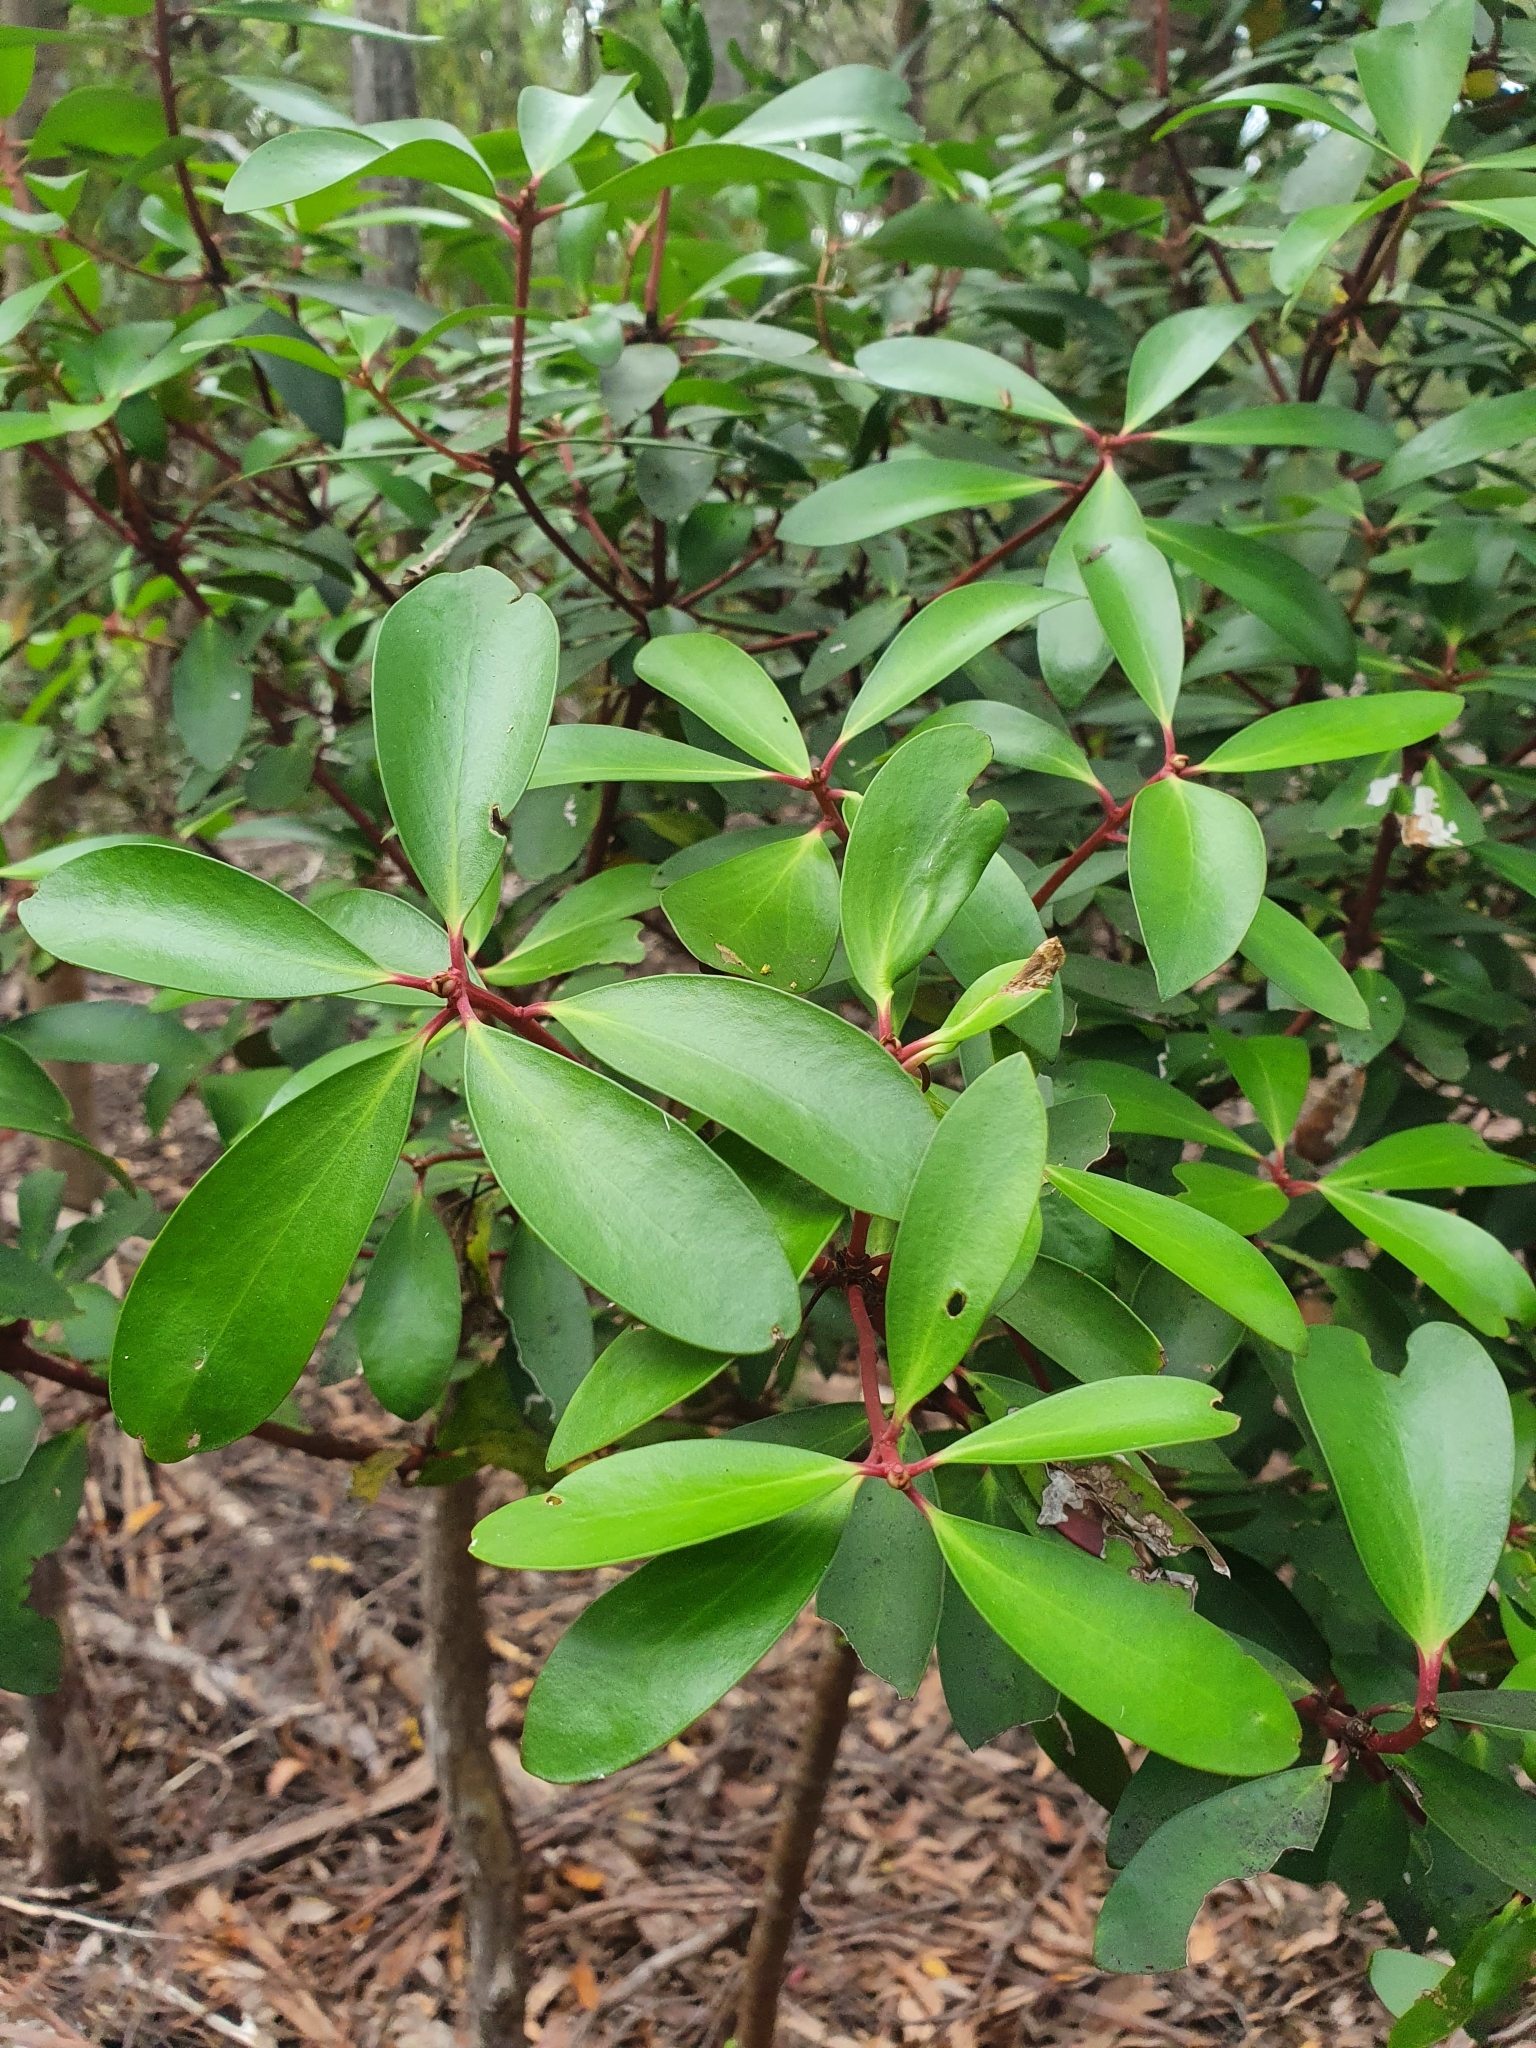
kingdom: Plantae
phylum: Tracheophyta
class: Magnoliopsida
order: Canellales
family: Winteraceae
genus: Drimys
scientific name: Drimys aromatica
